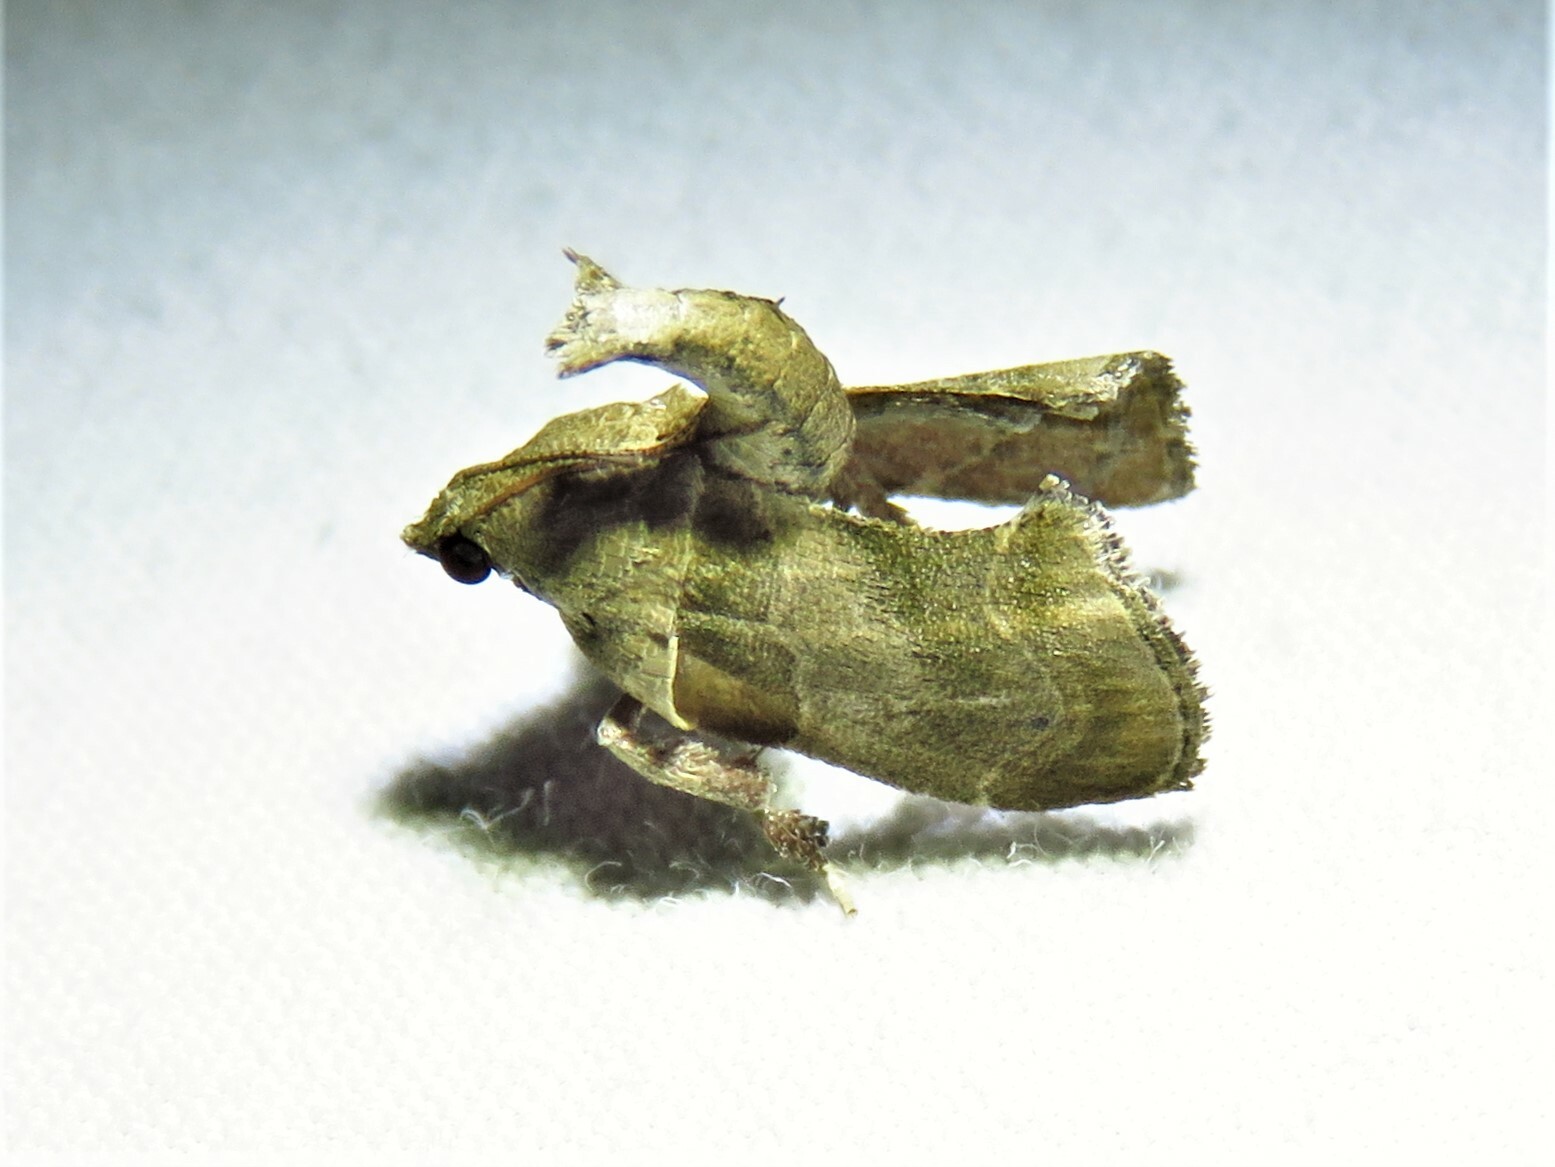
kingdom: Animalia
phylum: Arthropoda
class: Insecta
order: Lepidoptera
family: Pyralidae
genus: Tosale
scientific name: Tosale aucta
